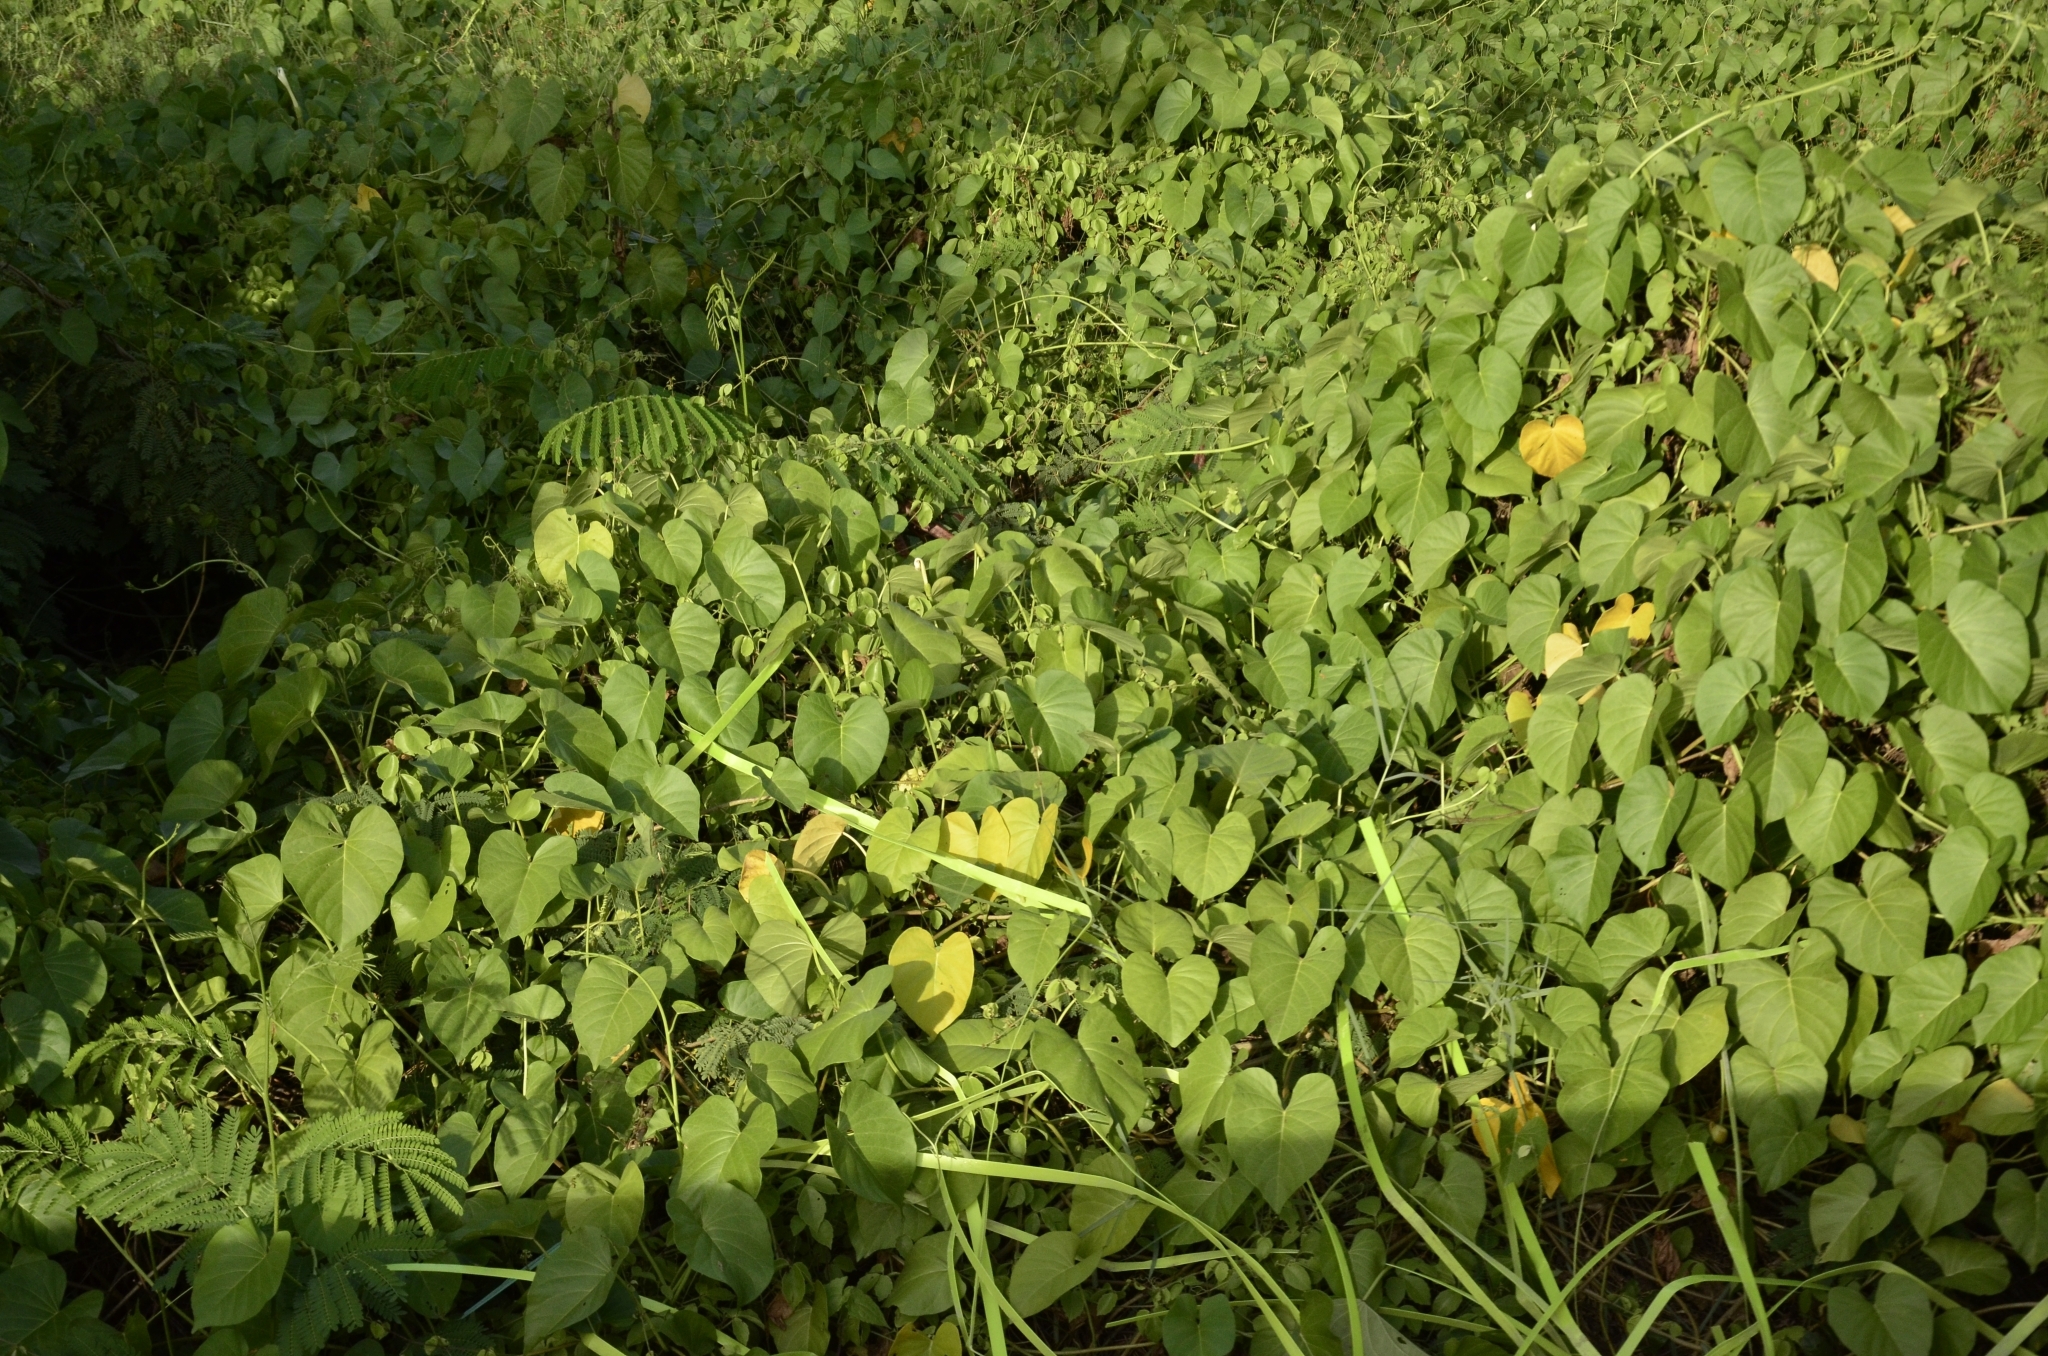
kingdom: Plantae
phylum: Tracheophyta
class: Magnoliopsida
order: Solanales
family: Convolvulaceae
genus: Ipomoea
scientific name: Ipomoea violacea
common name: Beach moonflower
